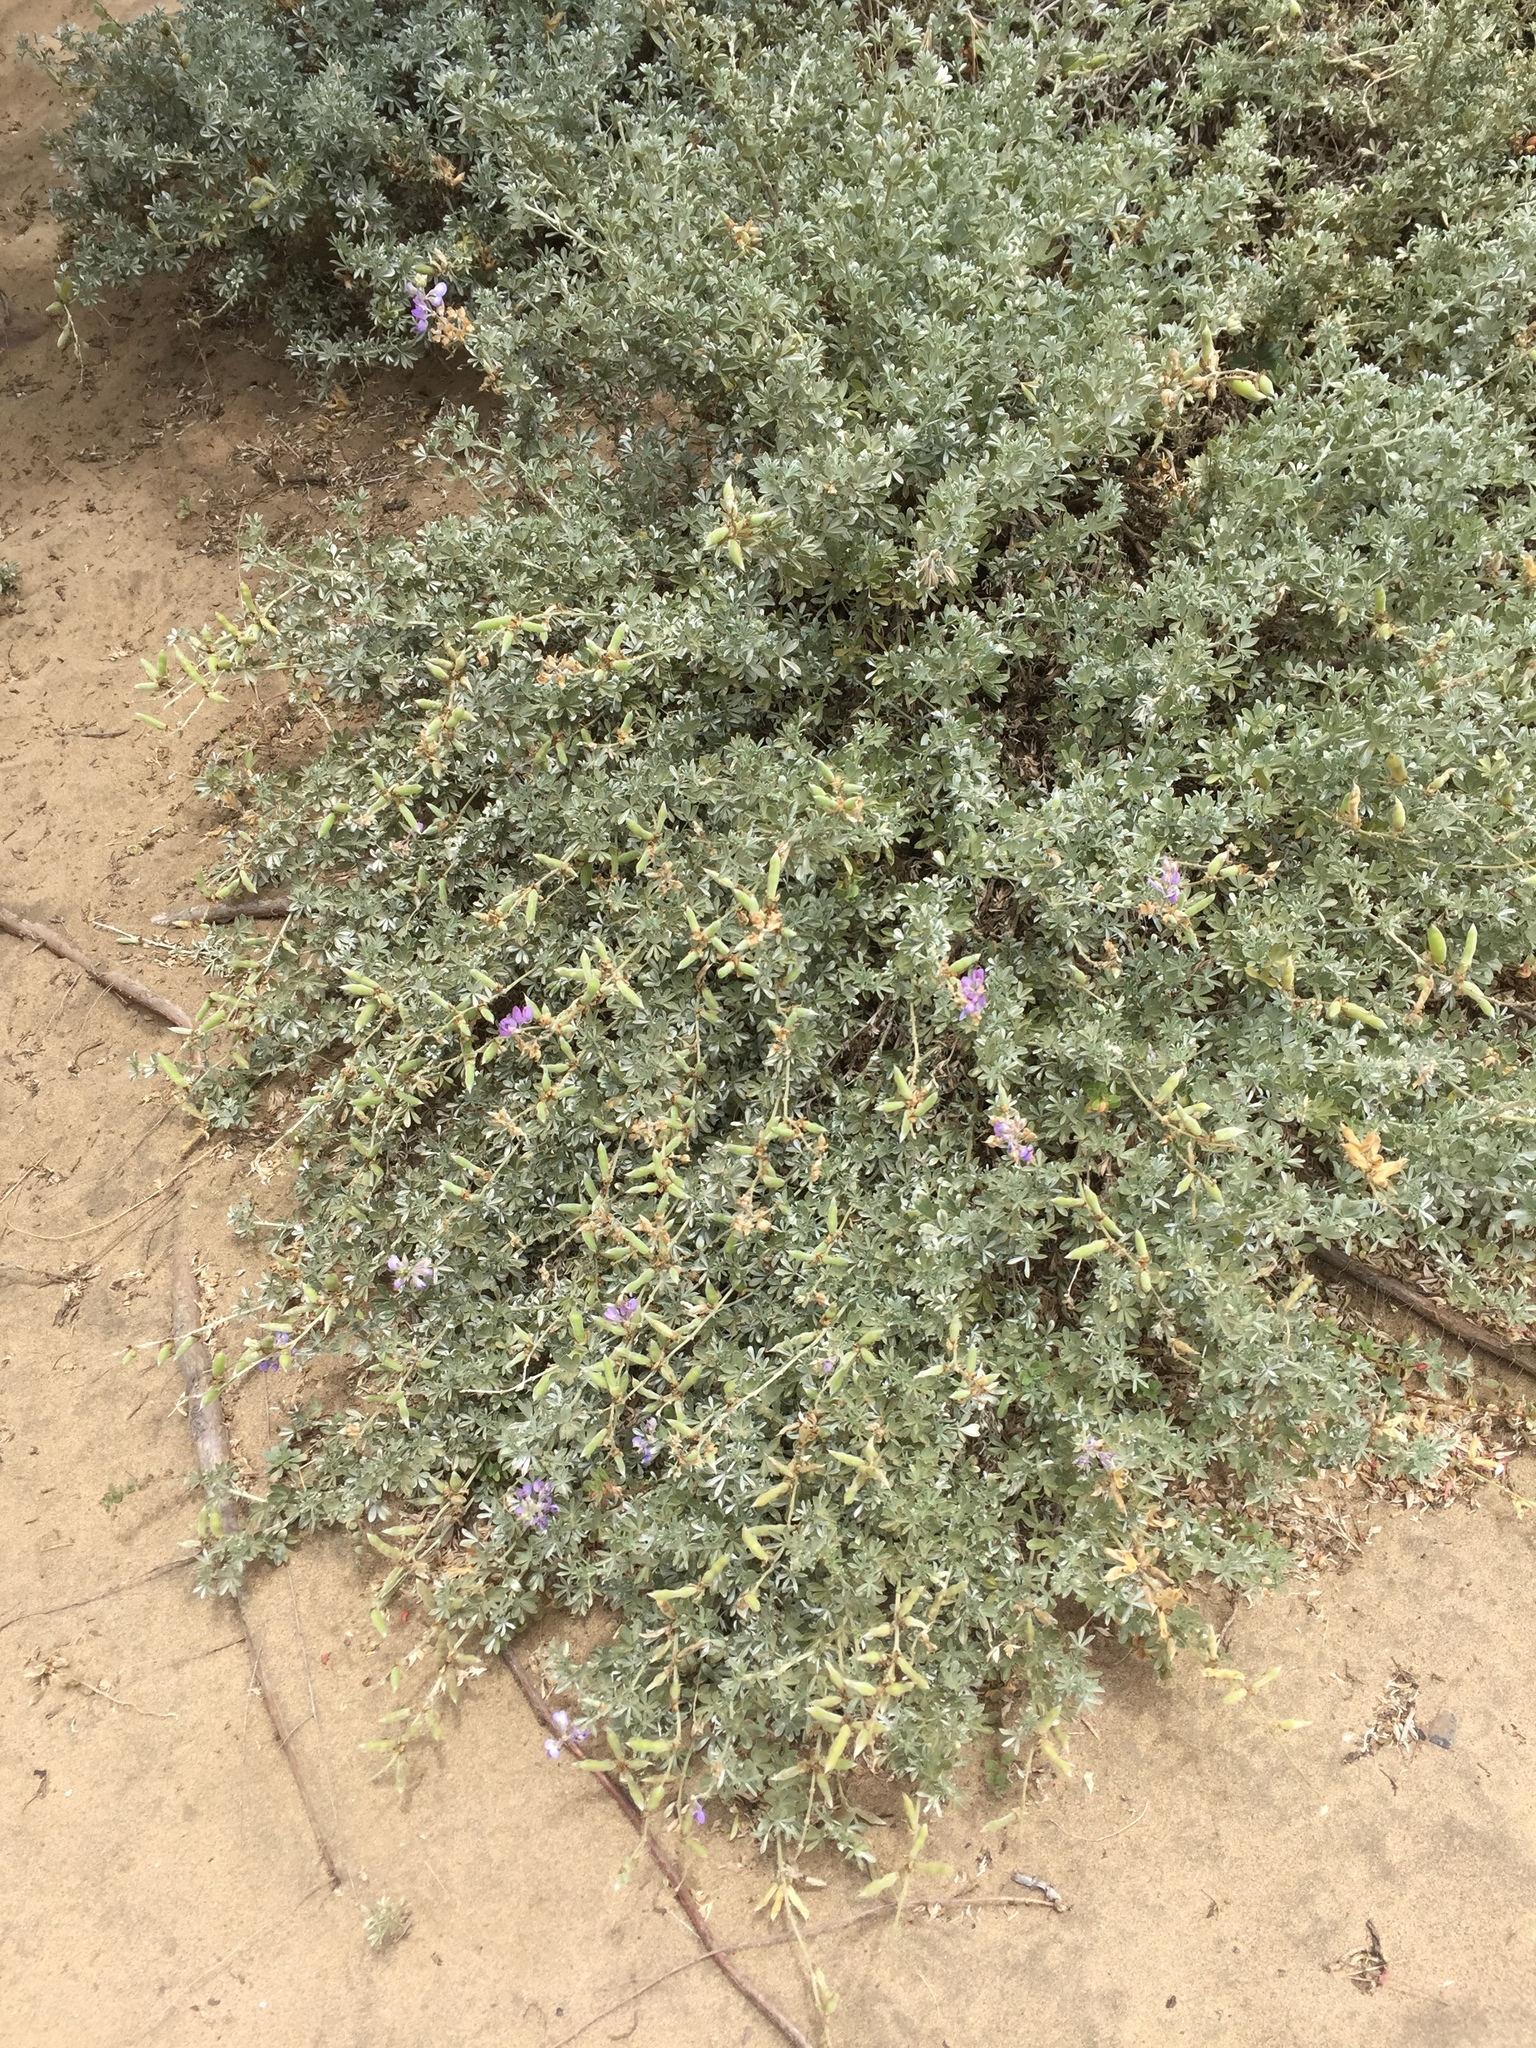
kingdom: Plantae
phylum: Tracheophyta
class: Magnoliopsida
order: Fabales
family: Fabaceae
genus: Lupinus
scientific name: Lupinus chamissonis
